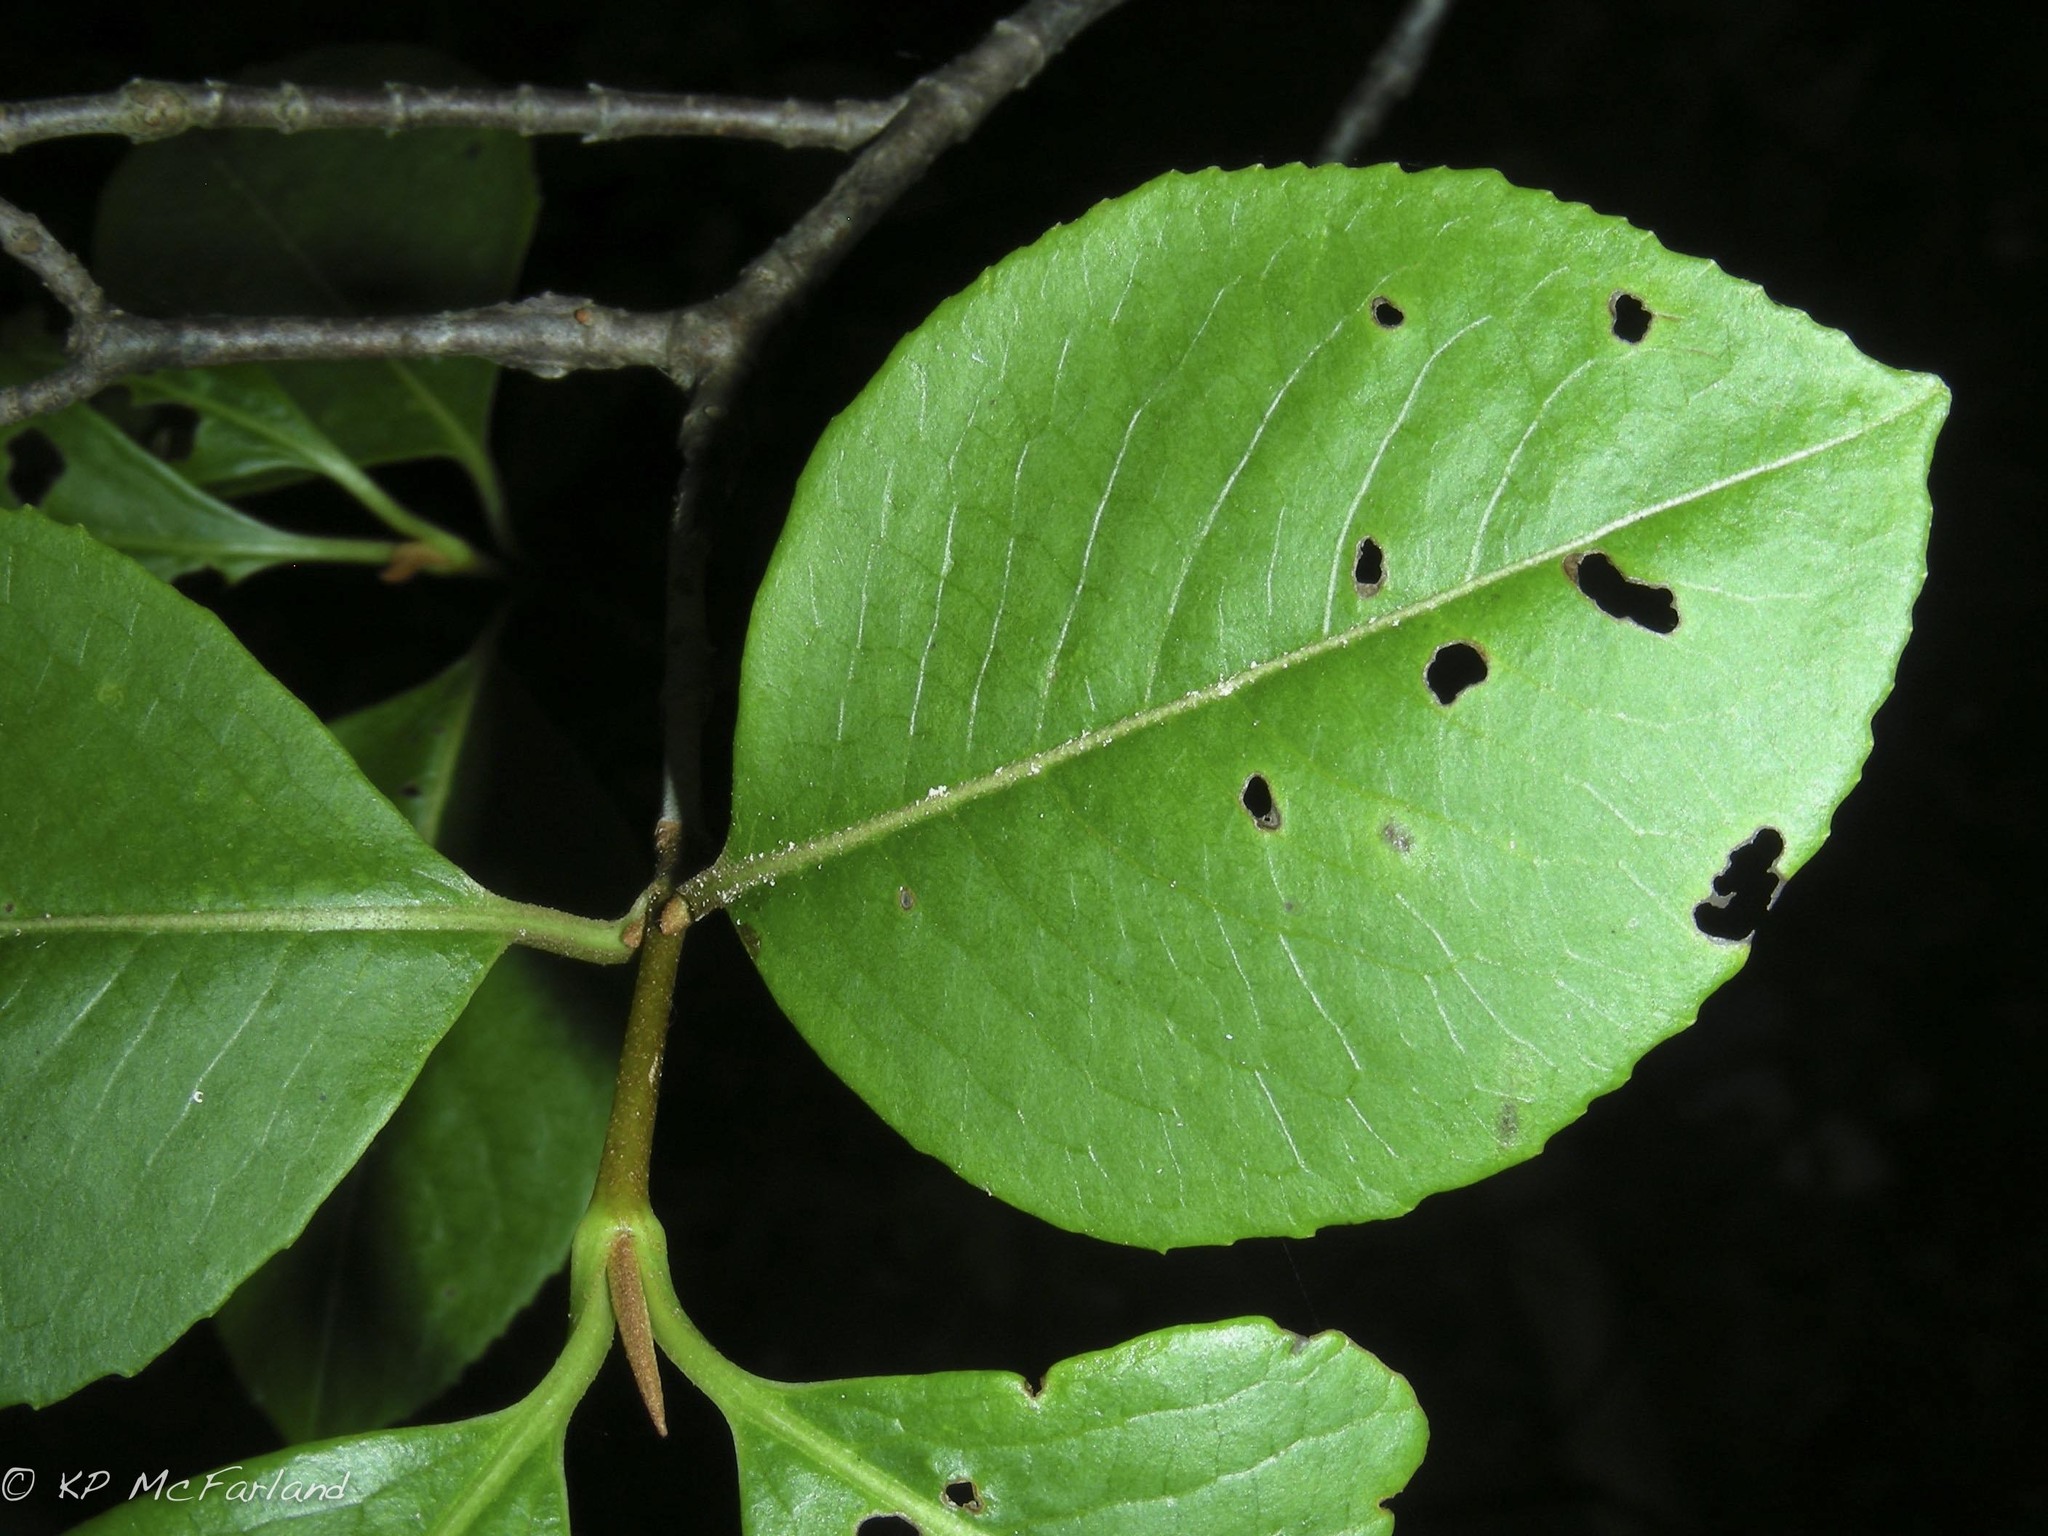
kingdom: Plantae
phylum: Tracheophyta
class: Magnoliopsida
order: Dipsacales
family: Viburnaceae
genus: Viburnum
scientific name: Viburnum cassinoides
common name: Swamp haw
